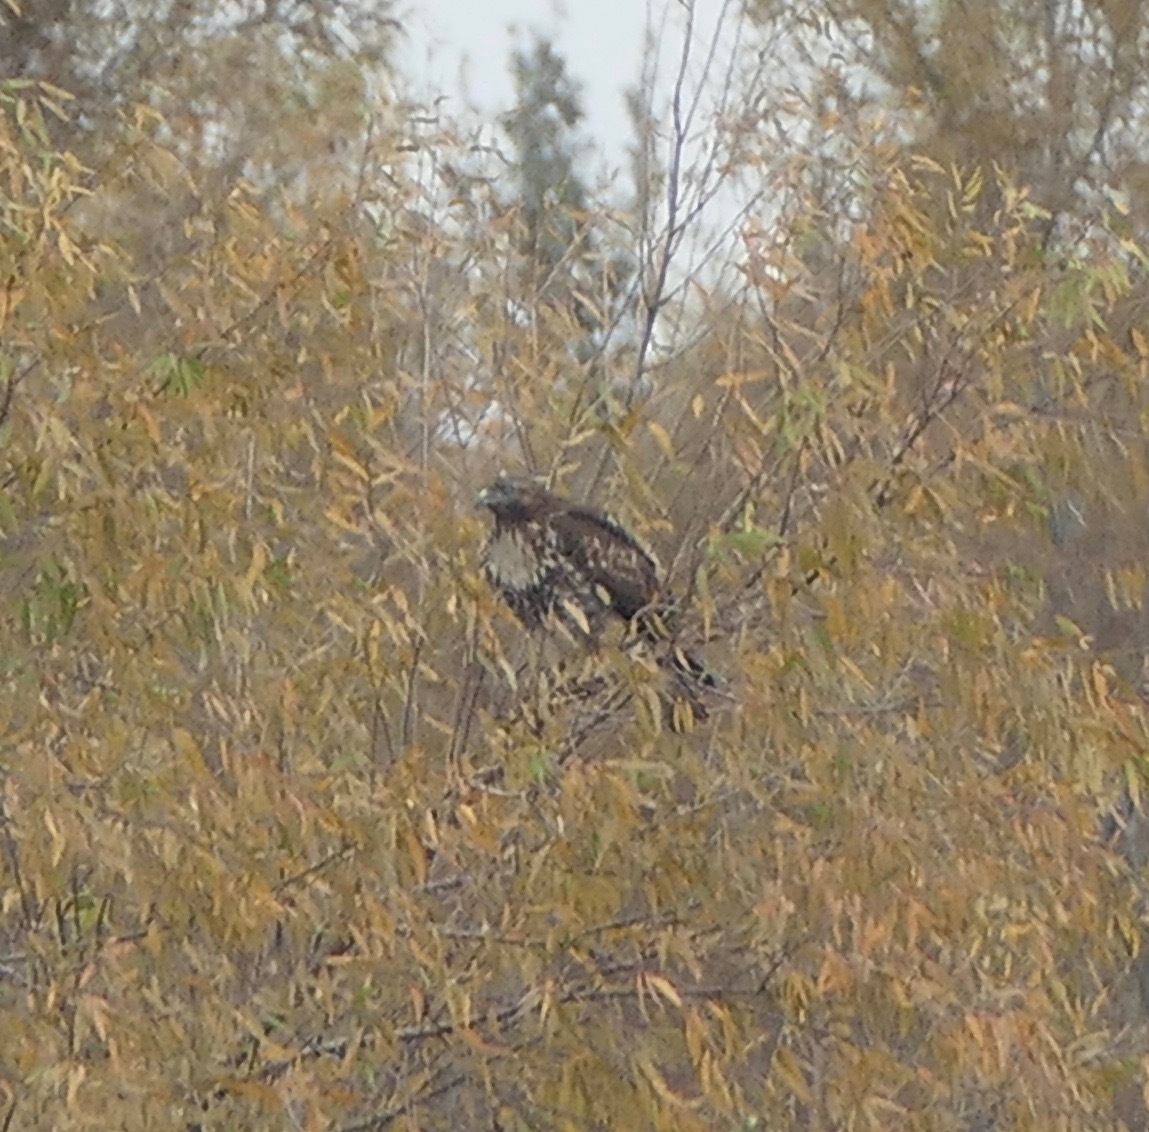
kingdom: Animalia
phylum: Chordata
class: Aves
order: Accipitriformes
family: Accipitridae
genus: Buteo
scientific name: Buteo jamaicensis
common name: Red-tailed hawk
